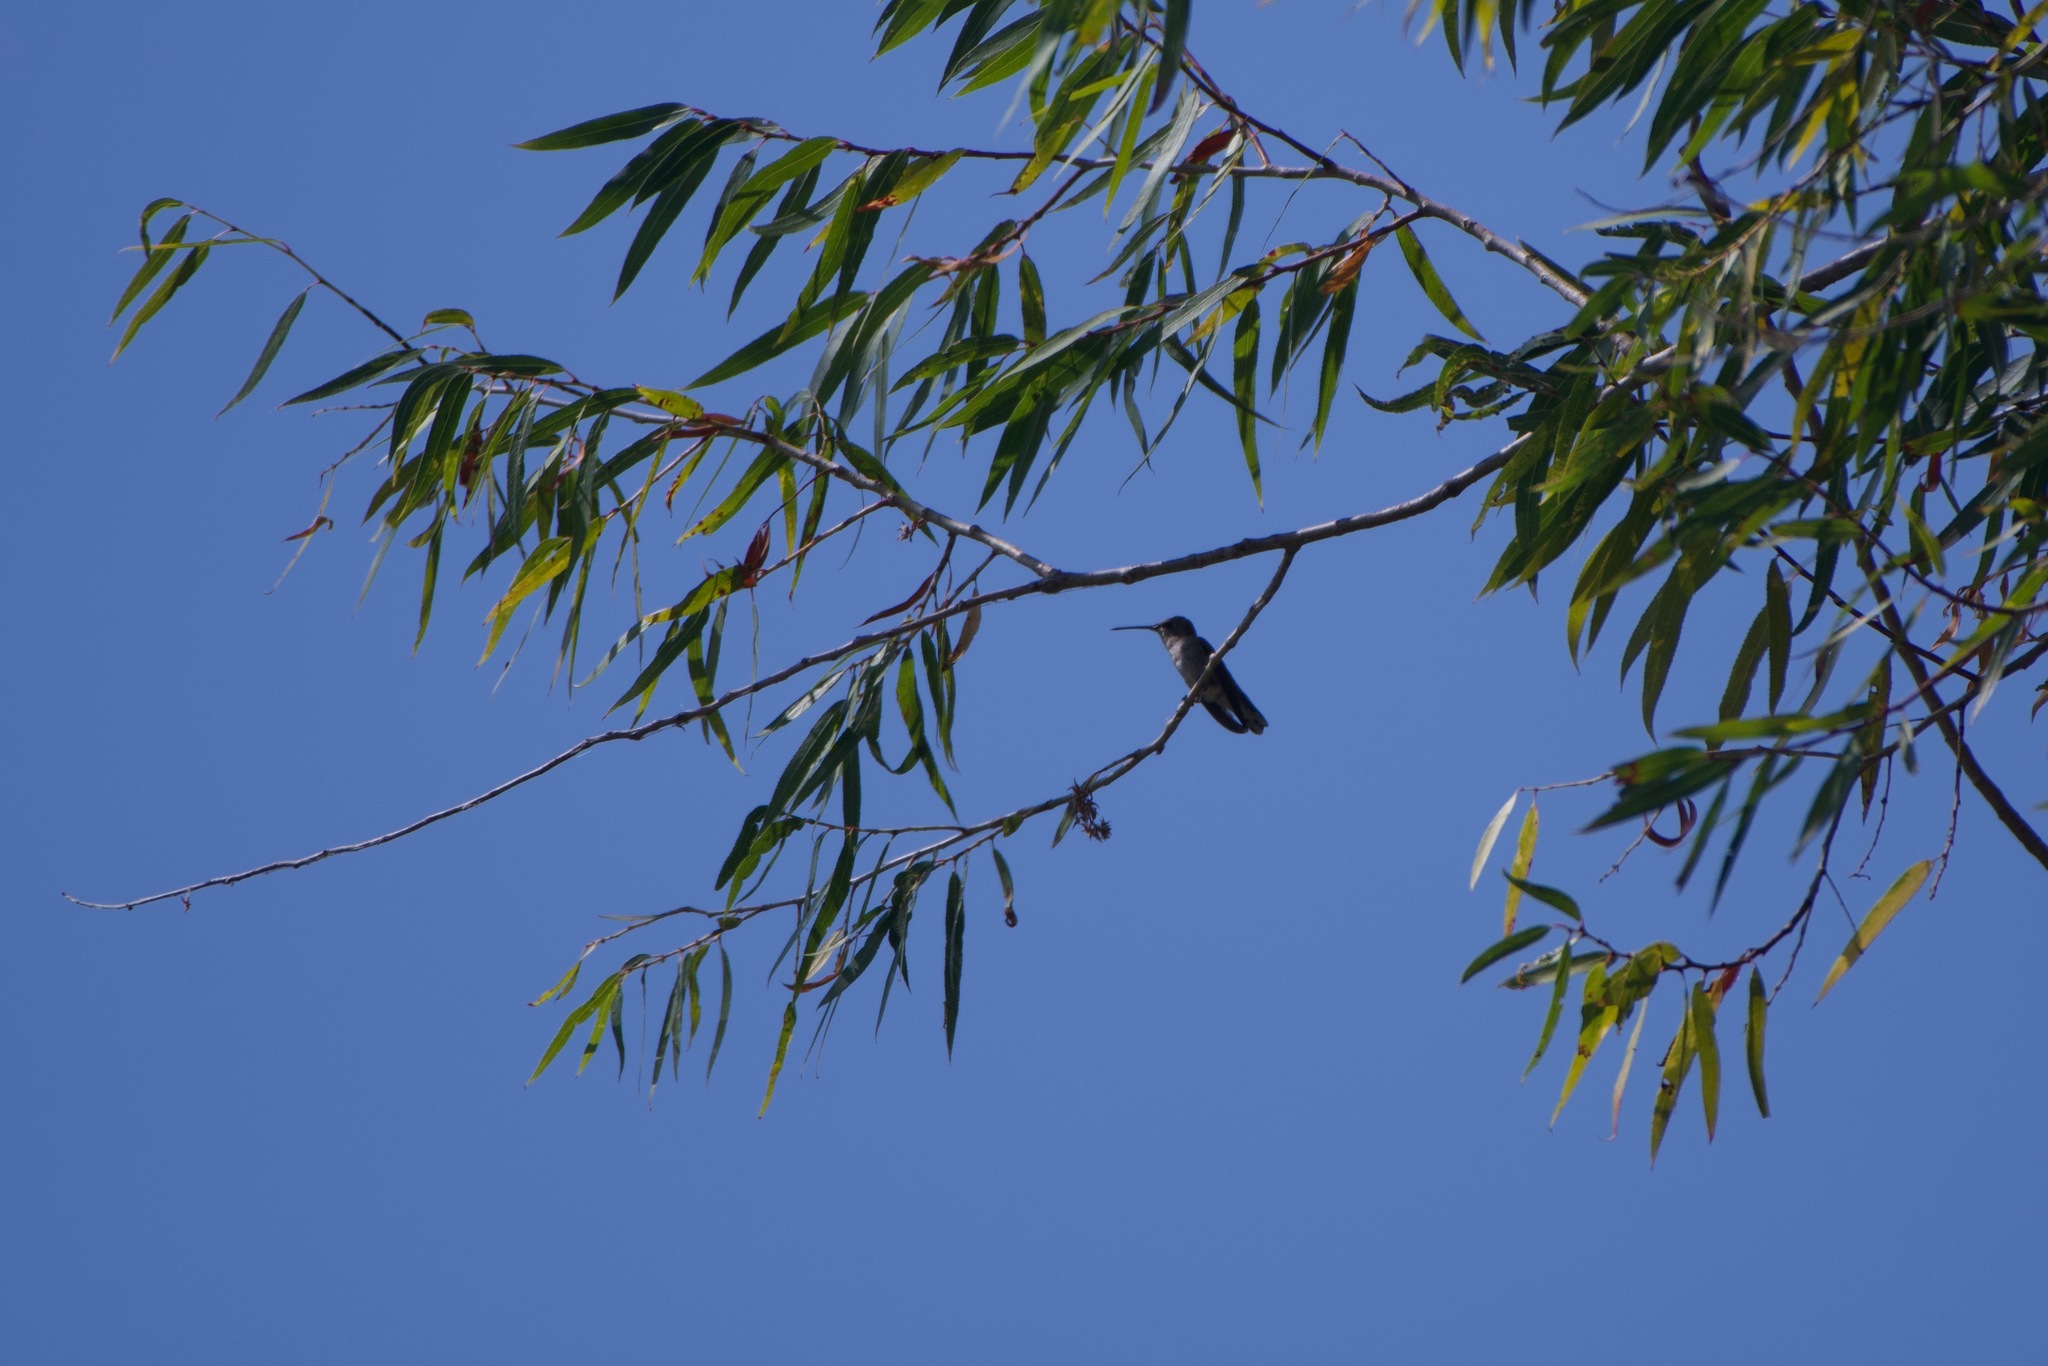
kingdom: Animalia
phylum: Chordata
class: Aves
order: Apodiformes
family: Trochilidae
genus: Archilochus
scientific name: Archilochus alexandri
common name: Black-chinned hummingbird
